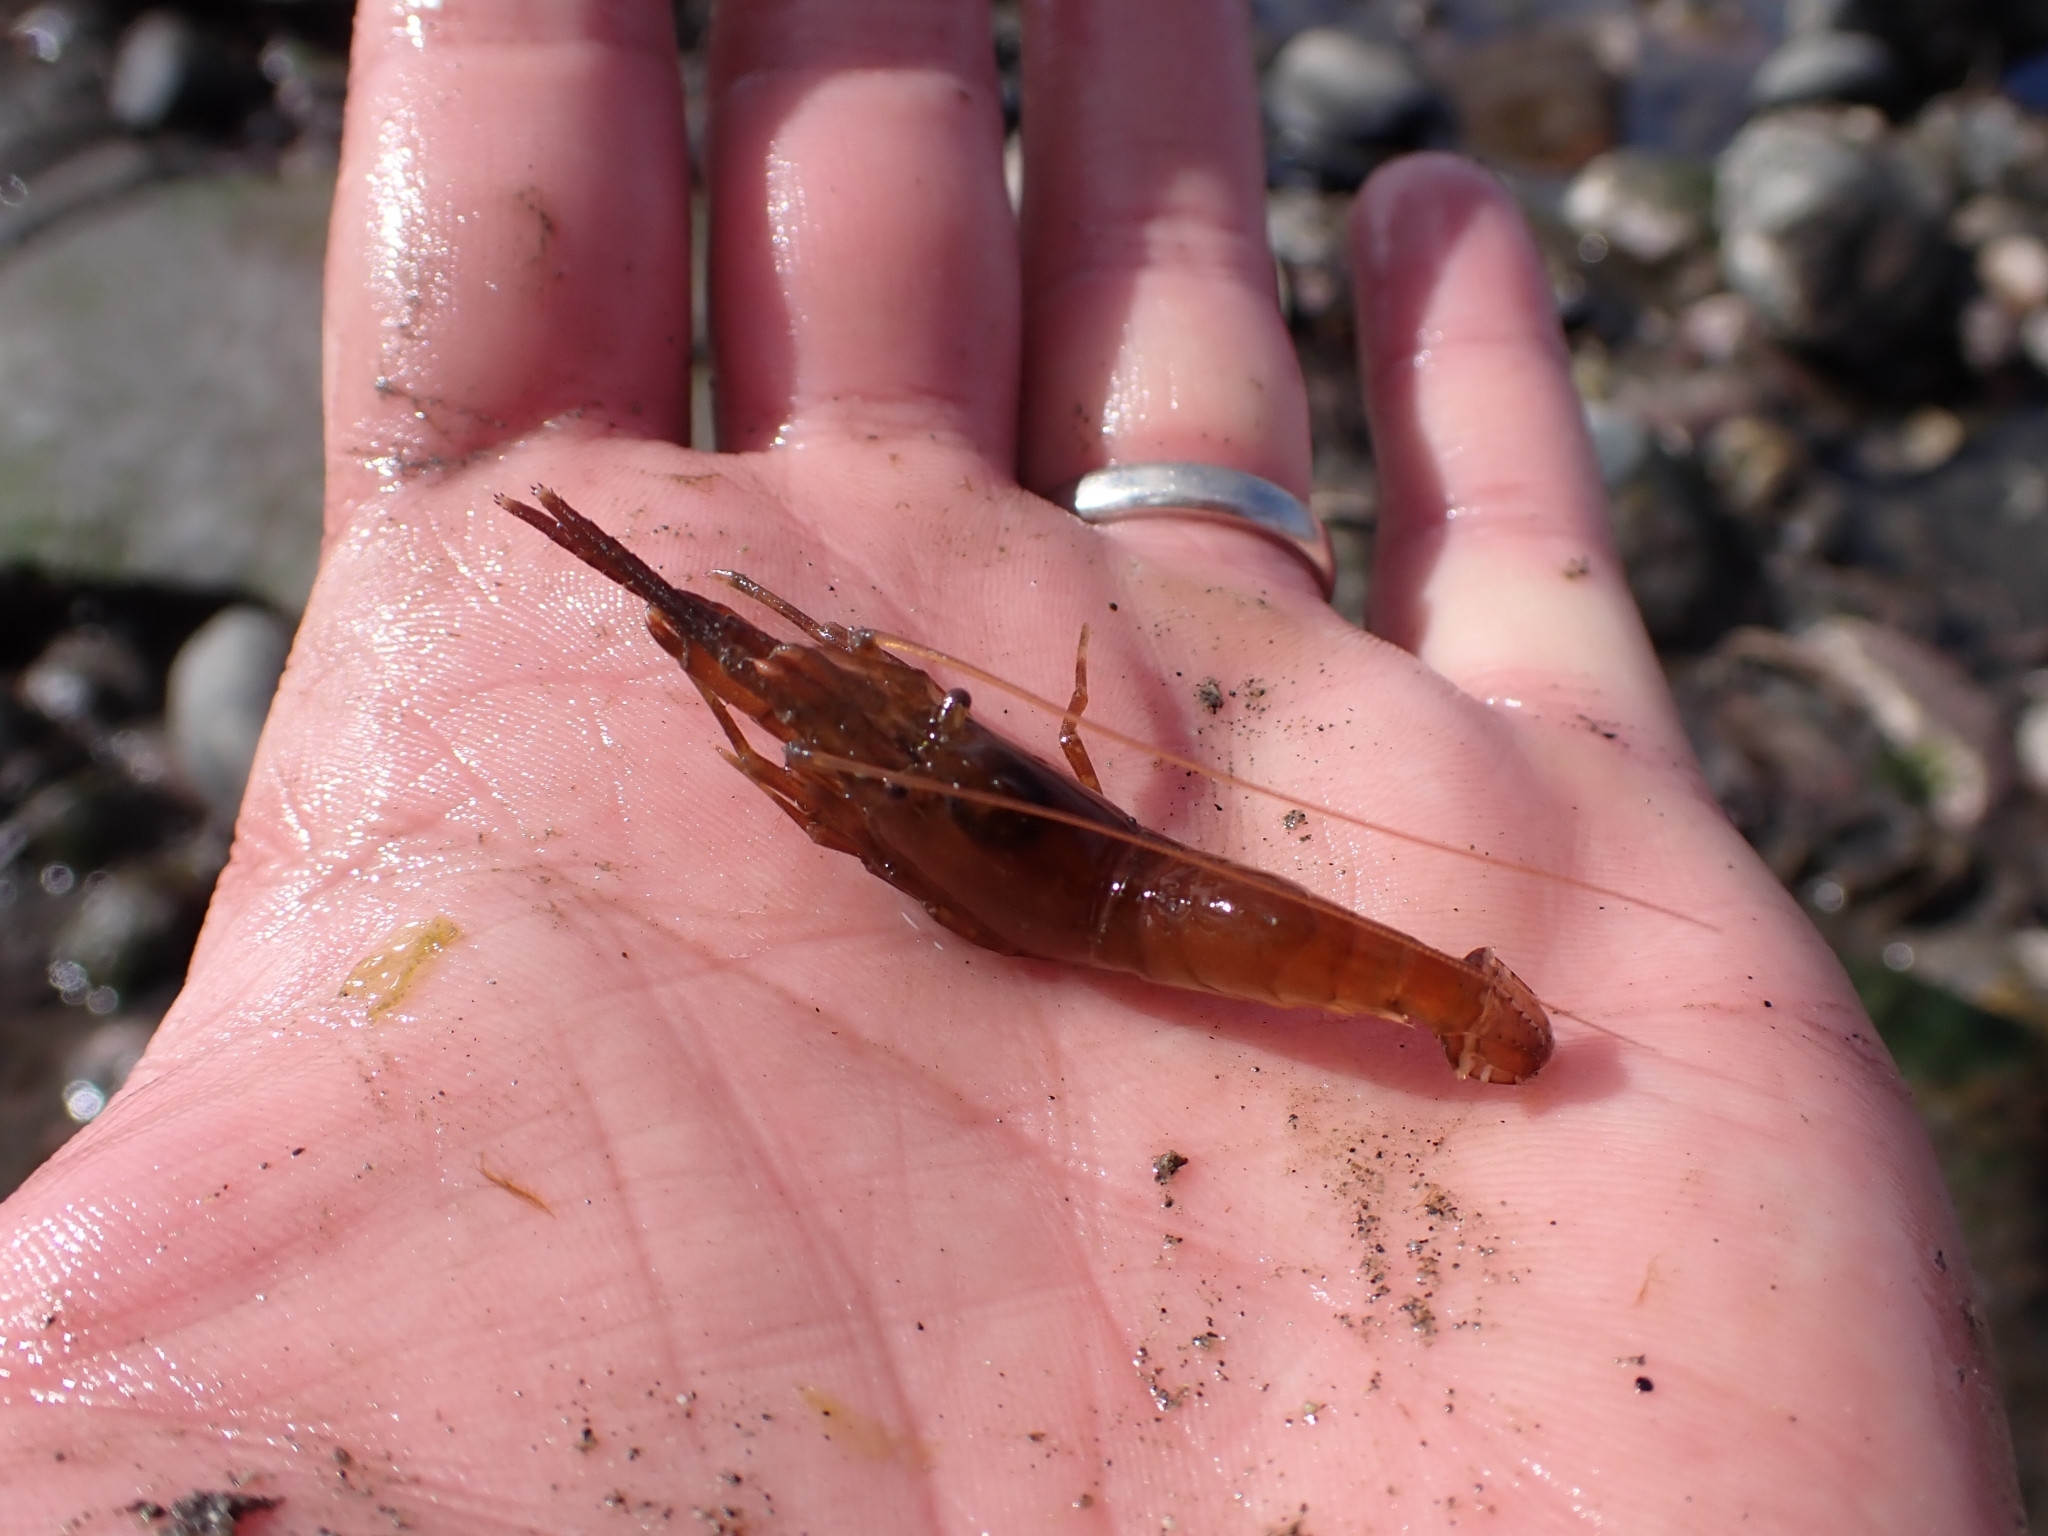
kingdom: Animalia
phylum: Arthropoda
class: Malacostraca
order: Decapoda
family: Thoridae
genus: Heptacarpus
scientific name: Heptacarpus brevirostris
